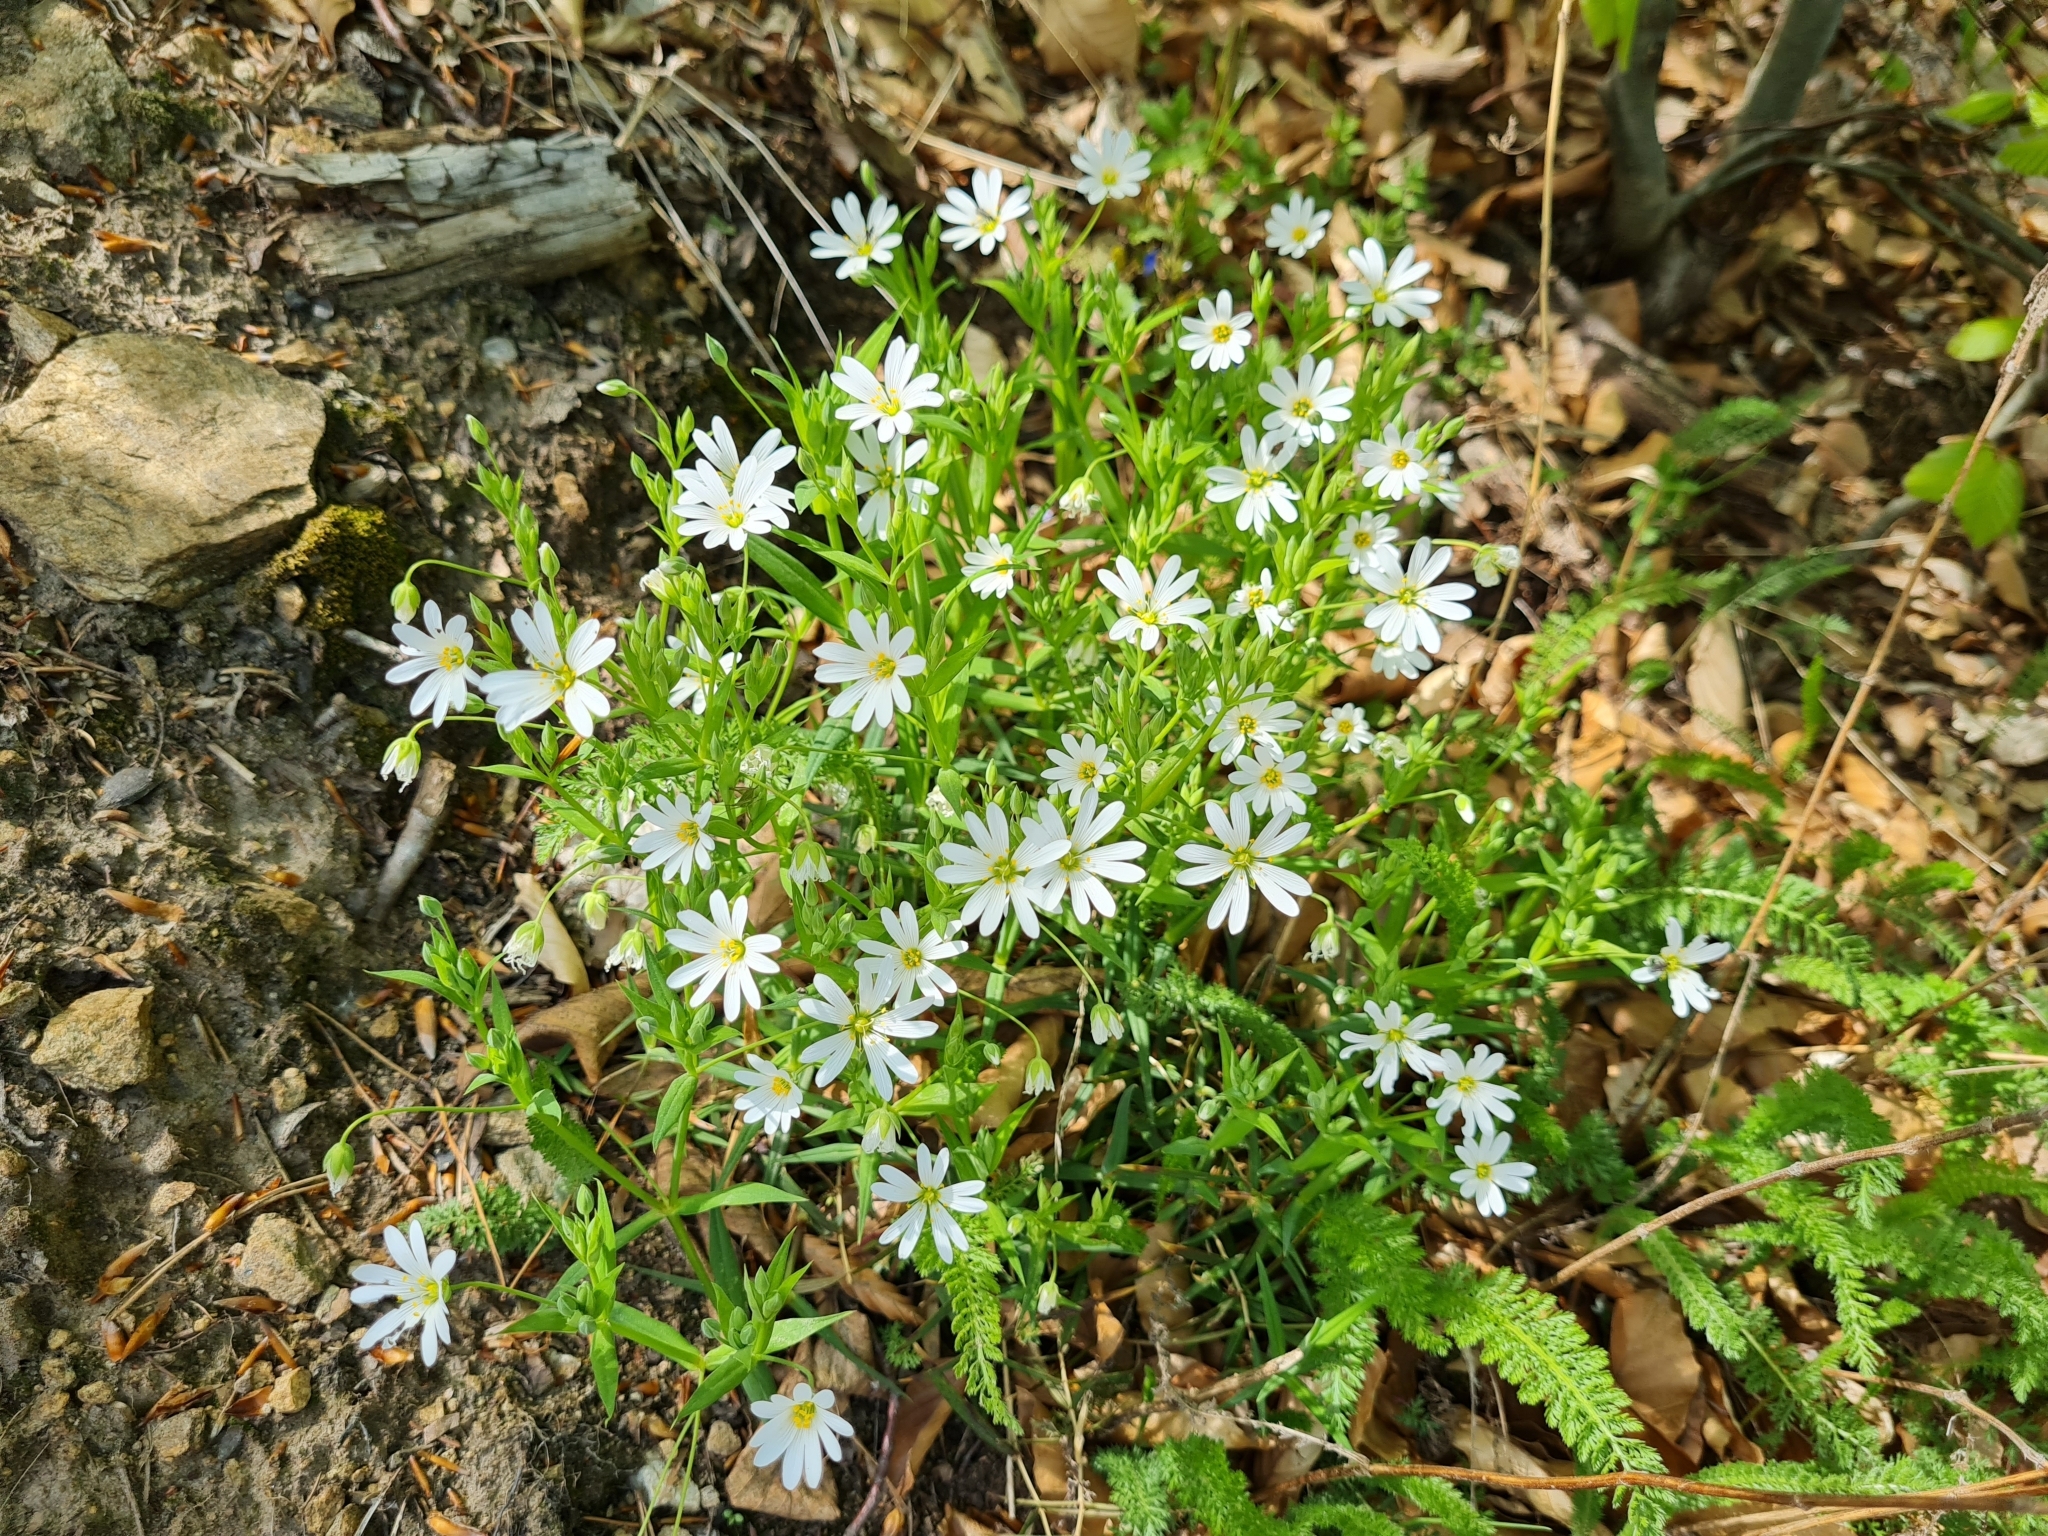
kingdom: Plantae
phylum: Tracheophyta
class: Magnoliopsida
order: Caryophyllales
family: Caryophyllaceae
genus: Rabelera
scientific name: Rabelera holostea
